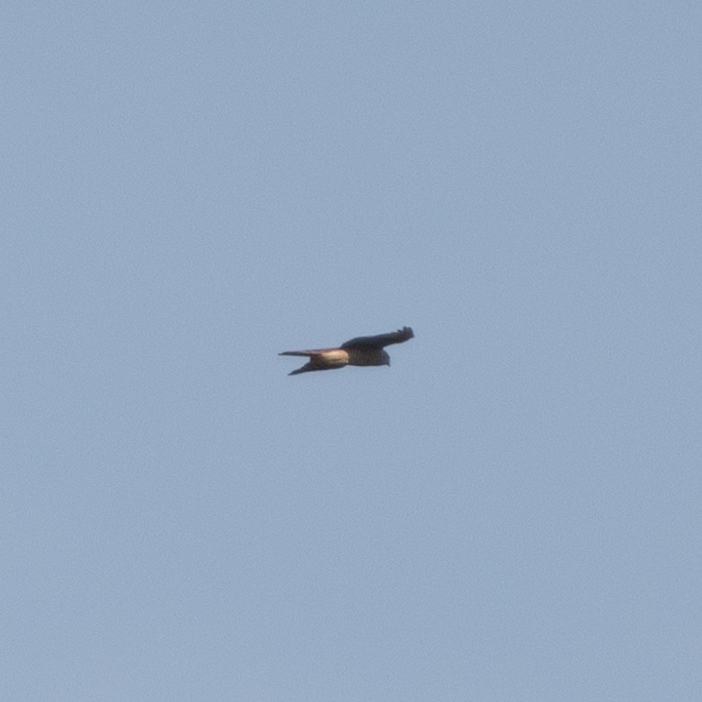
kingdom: Animalia
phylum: Chordata
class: Aves
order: Accipitriformes
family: Accipitridae
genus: Accipiter
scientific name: Accipiter nisus
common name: Eurasian sparrowhawk
